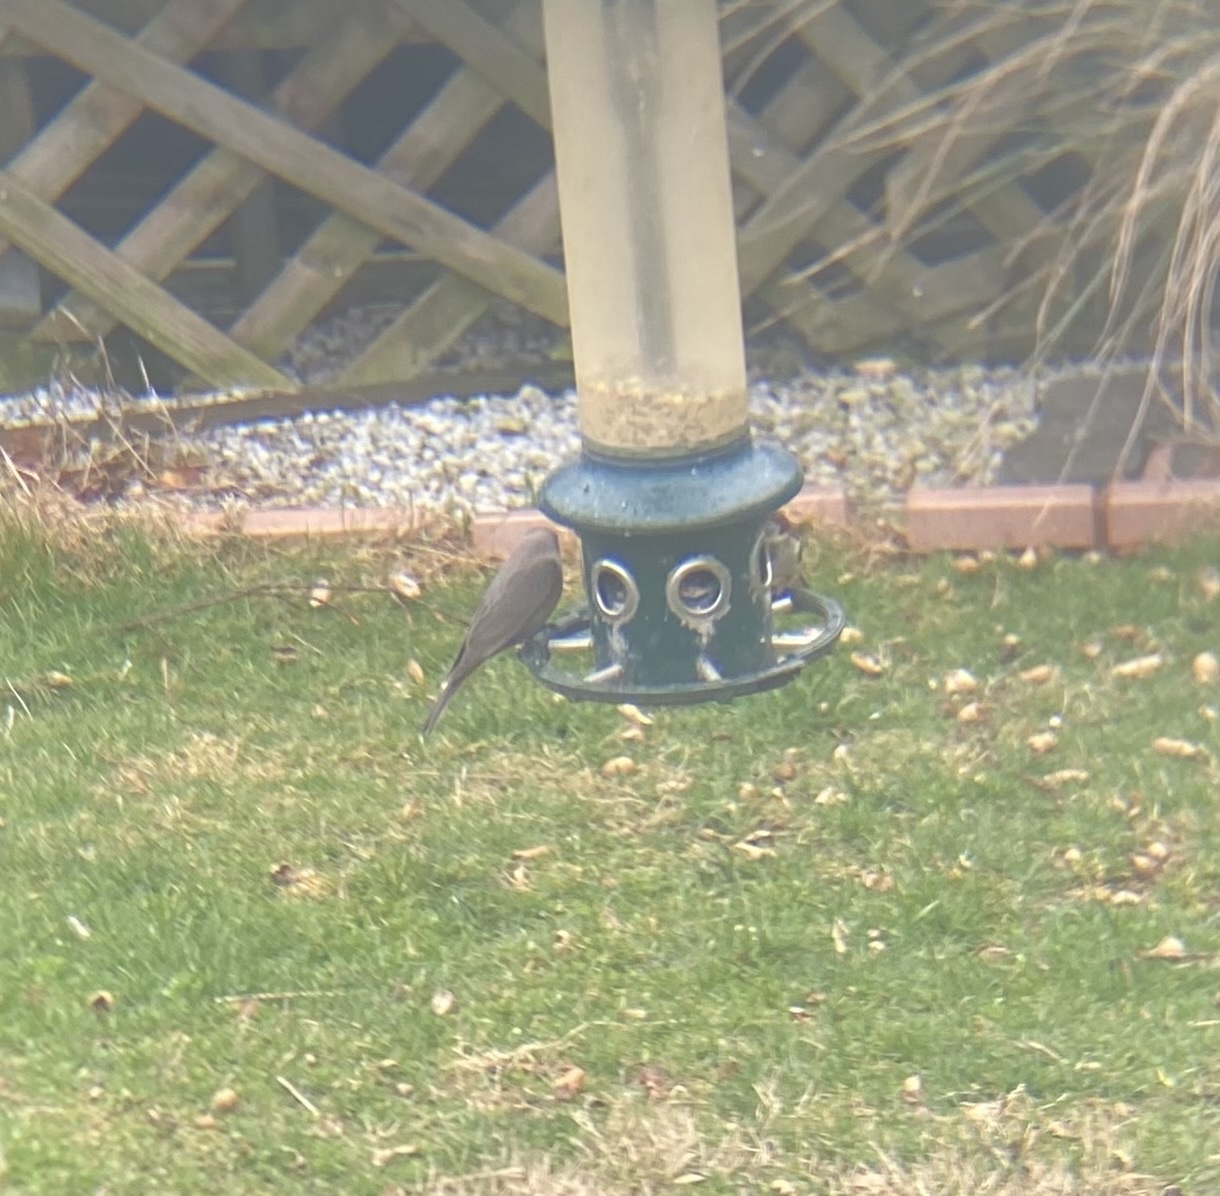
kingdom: Animalia
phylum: Chordata
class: Aves
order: Passeriformes
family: Icteridae
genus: Molothrus
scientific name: Molothrus ater
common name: Brown-headed cowbird
